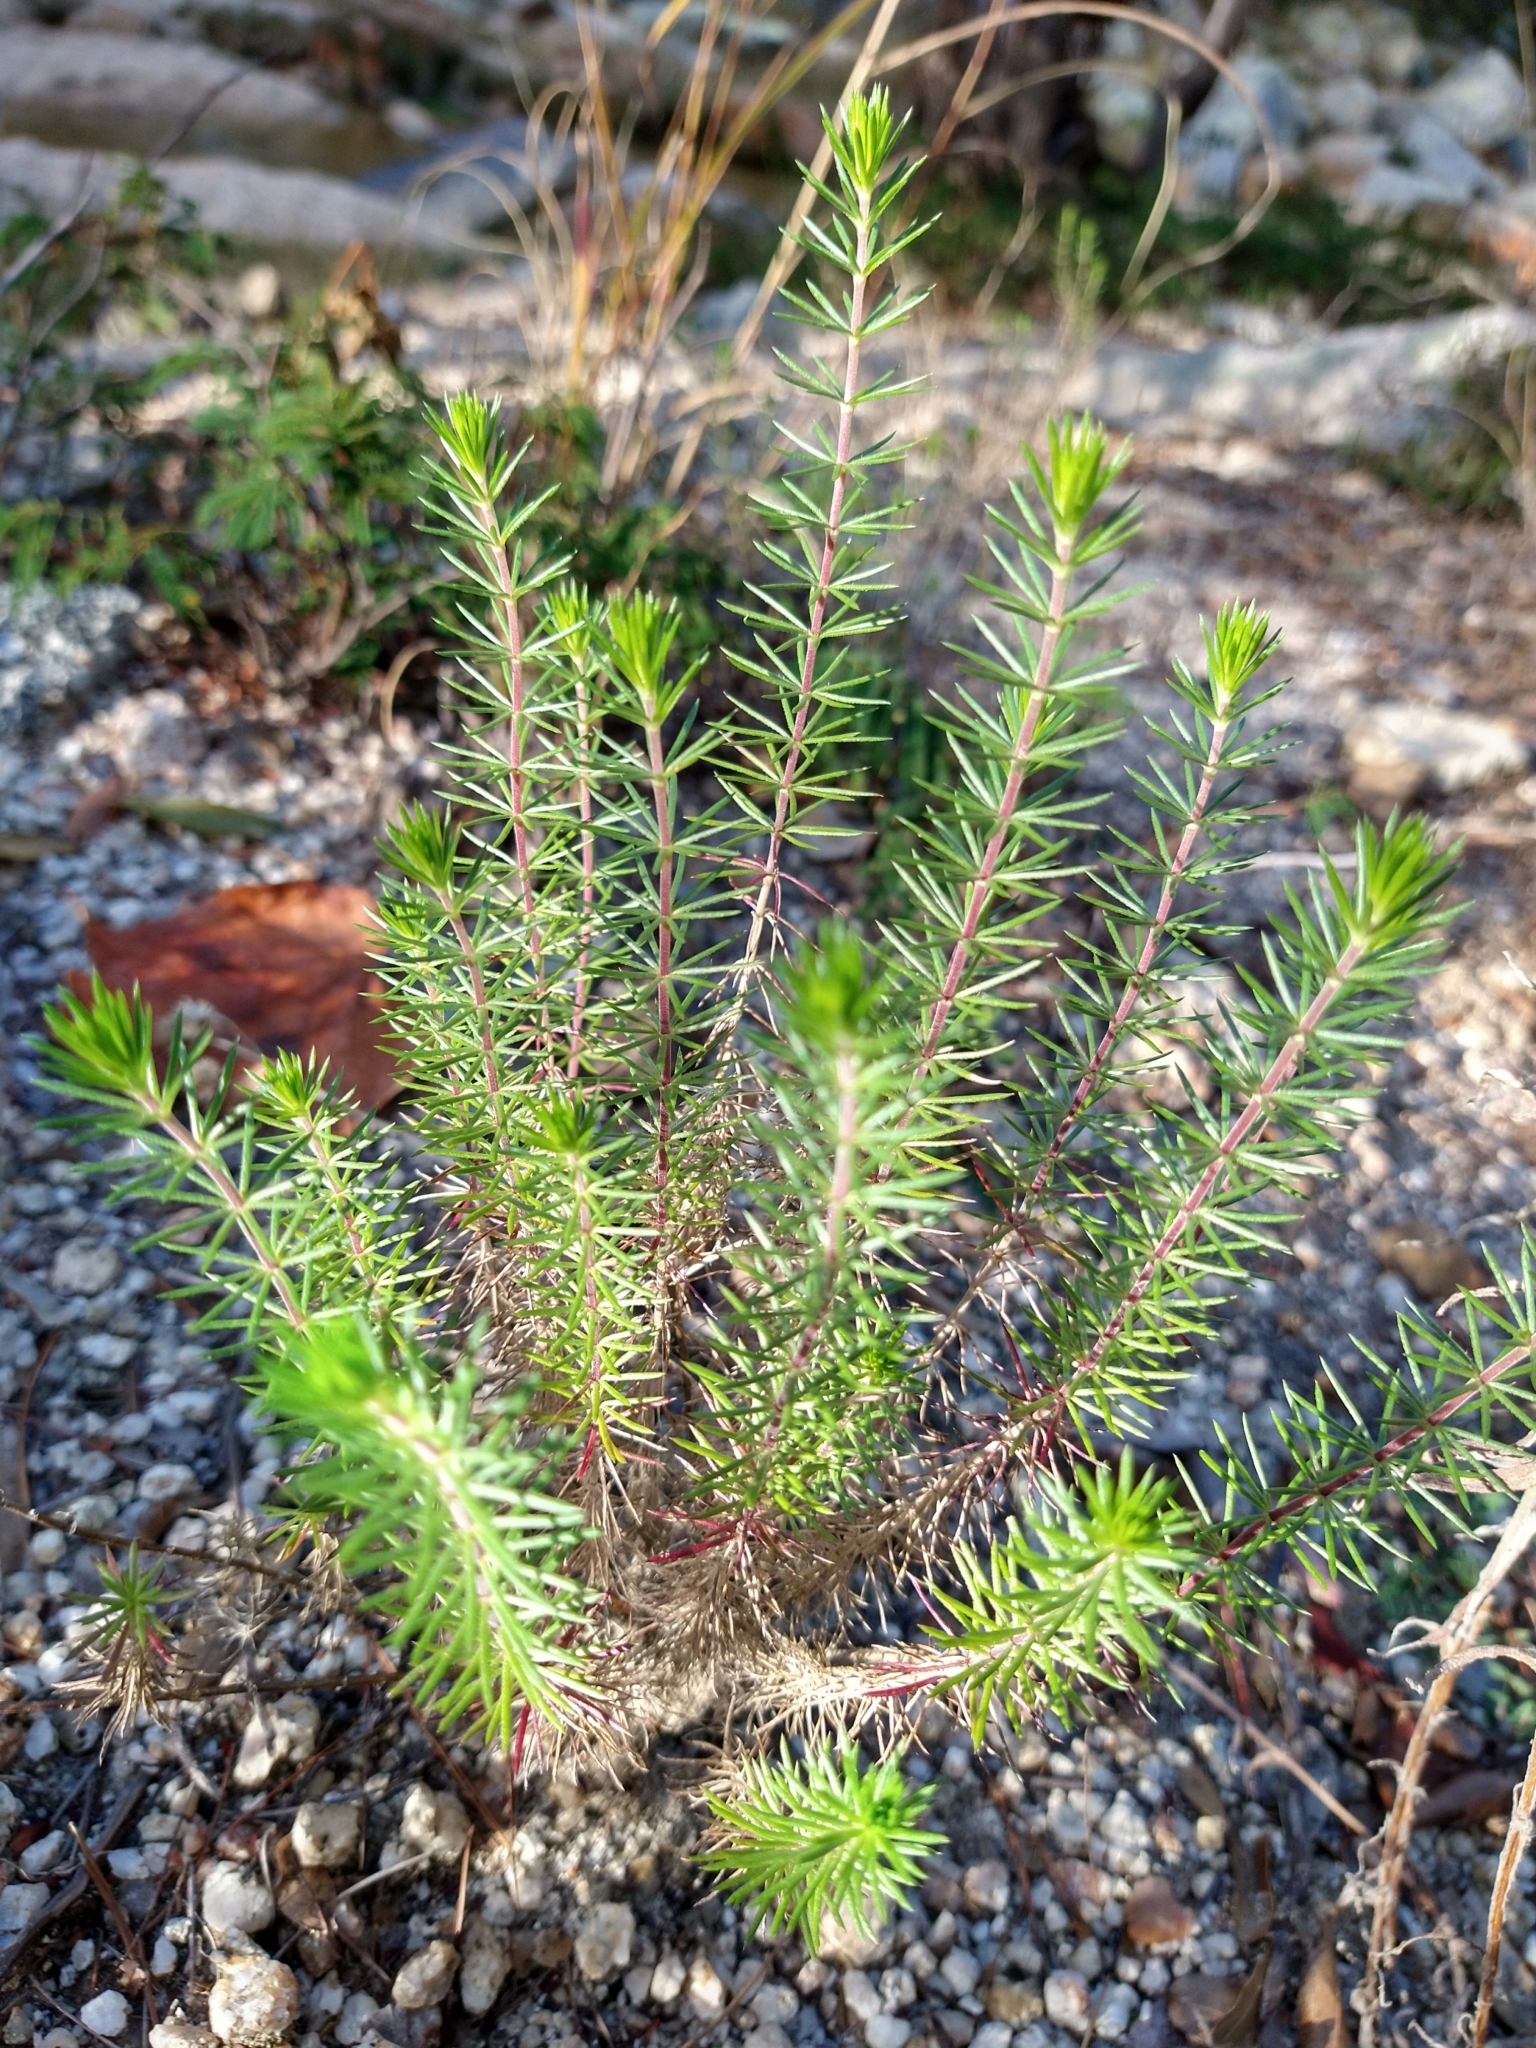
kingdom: Plantae
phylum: Tracheophyta
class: Magnoliopsida
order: Ericales
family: Polemoniaceae
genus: Leptosiphon
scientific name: Leptosiphon nuttallii
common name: Nuttall's linanthus
